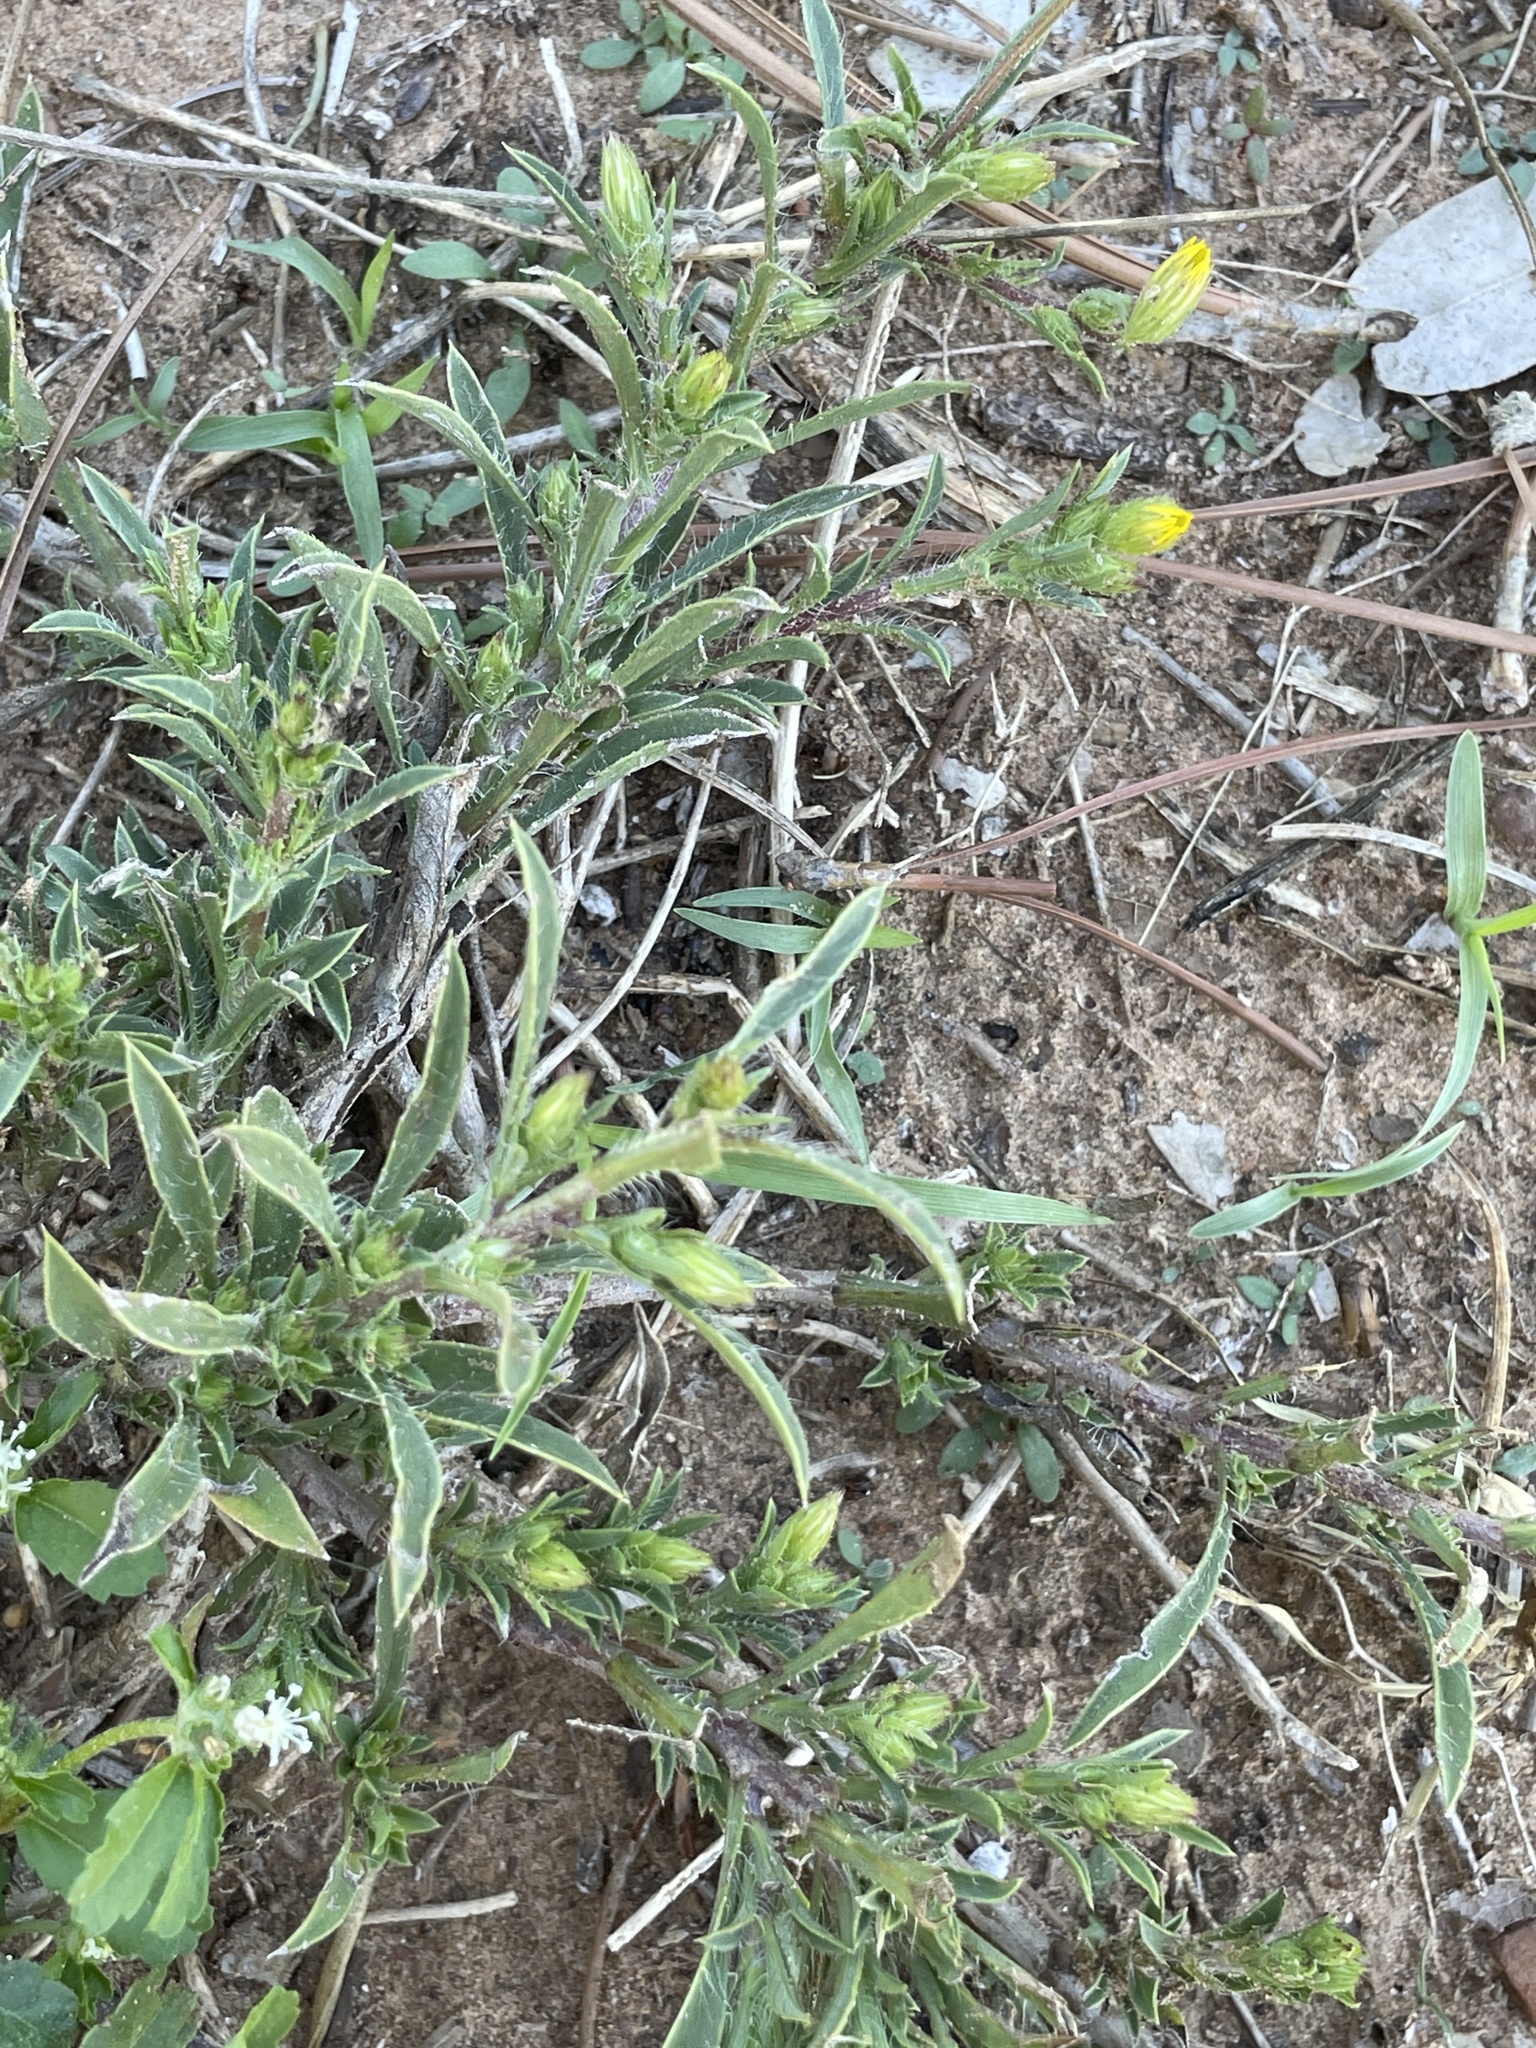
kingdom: Plantae
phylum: Tracheophyta
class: Magnoliopsida
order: Asterales
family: Asteraceae
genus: Croptilon
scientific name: Croptilon rigidifolium
